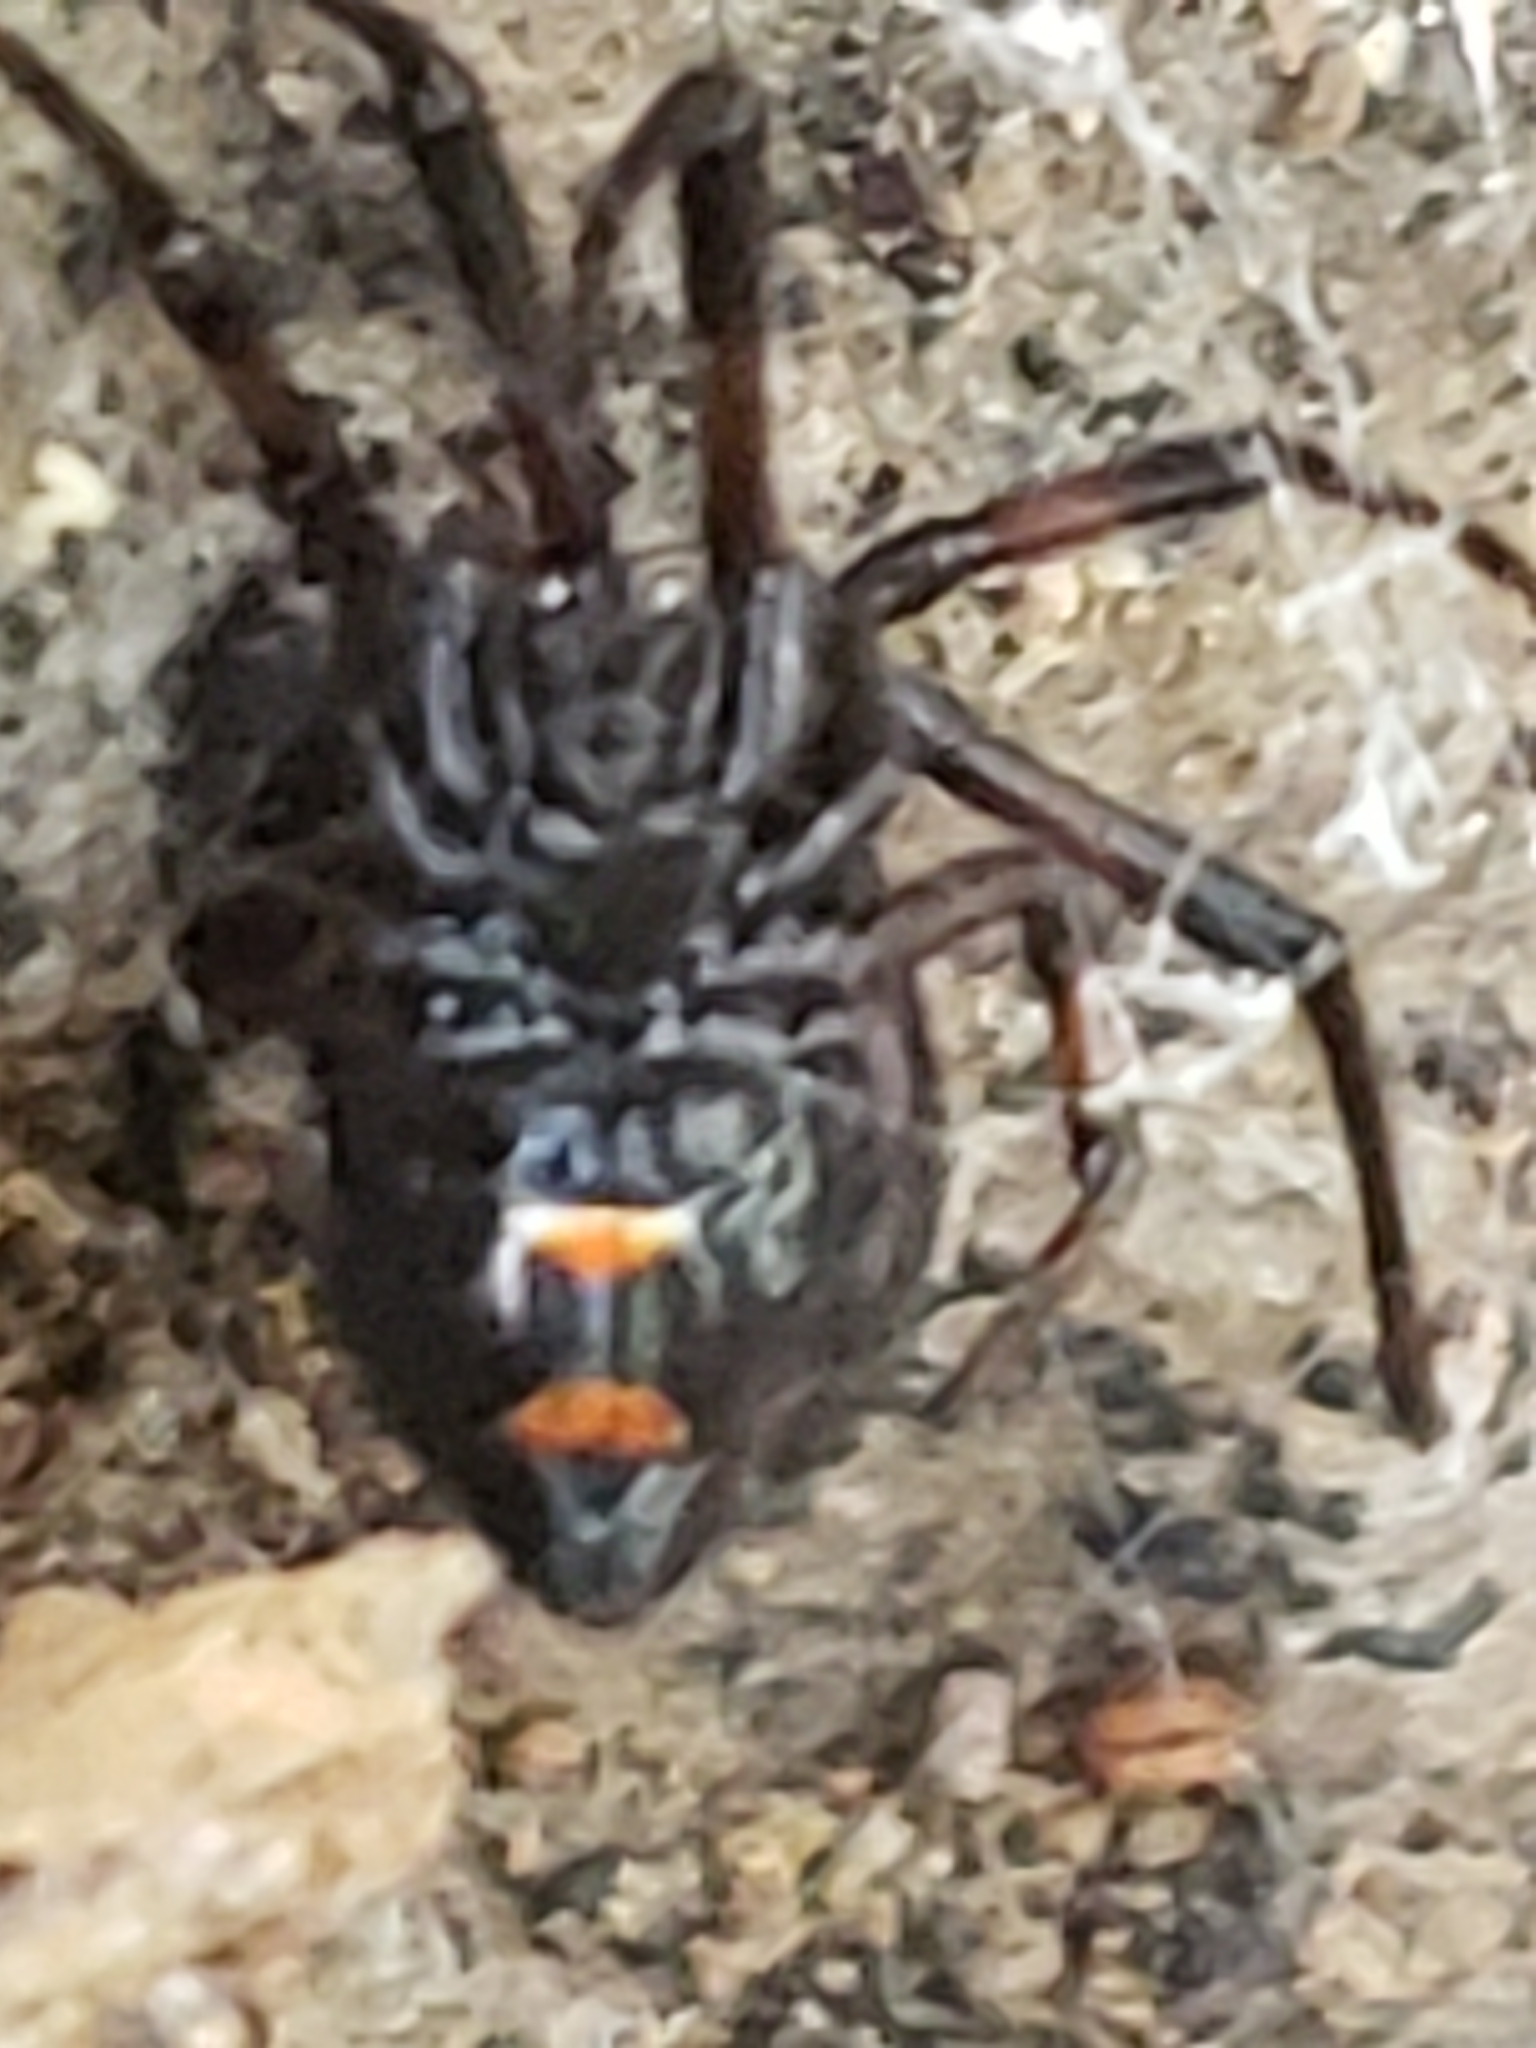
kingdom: Animalia
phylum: Arthropoda
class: Arachnida
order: Araneae
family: Theridiidae
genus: Latrodectus
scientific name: Latrodectus variolus
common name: Northern black widow
